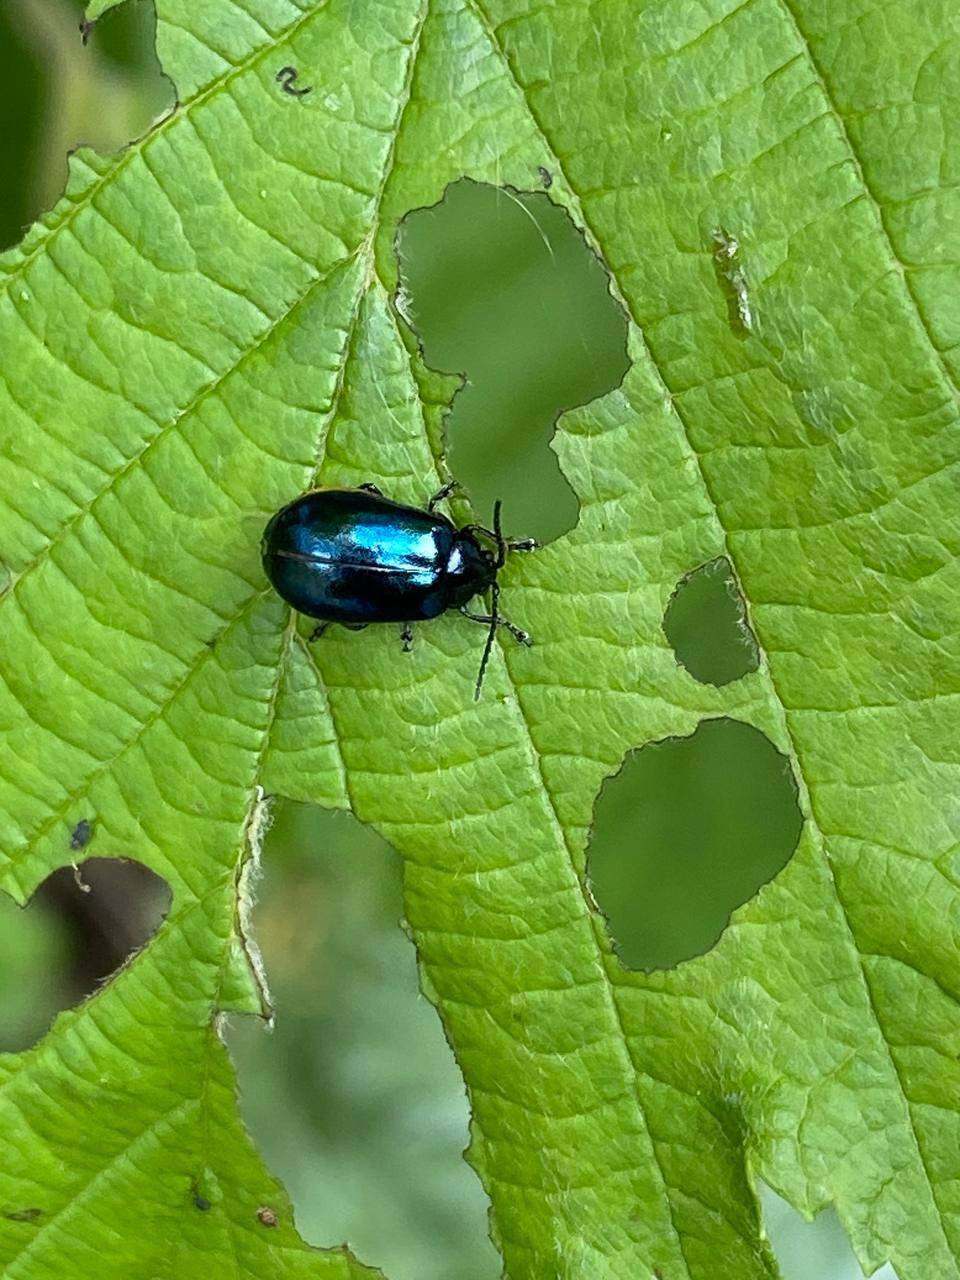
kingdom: Animalia
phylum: Arthropoda
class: Insecta
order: Coleoptera
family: Chrysomelidae
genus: Agelastica
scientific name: Agelastica alni
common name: Alder leaf beetle
